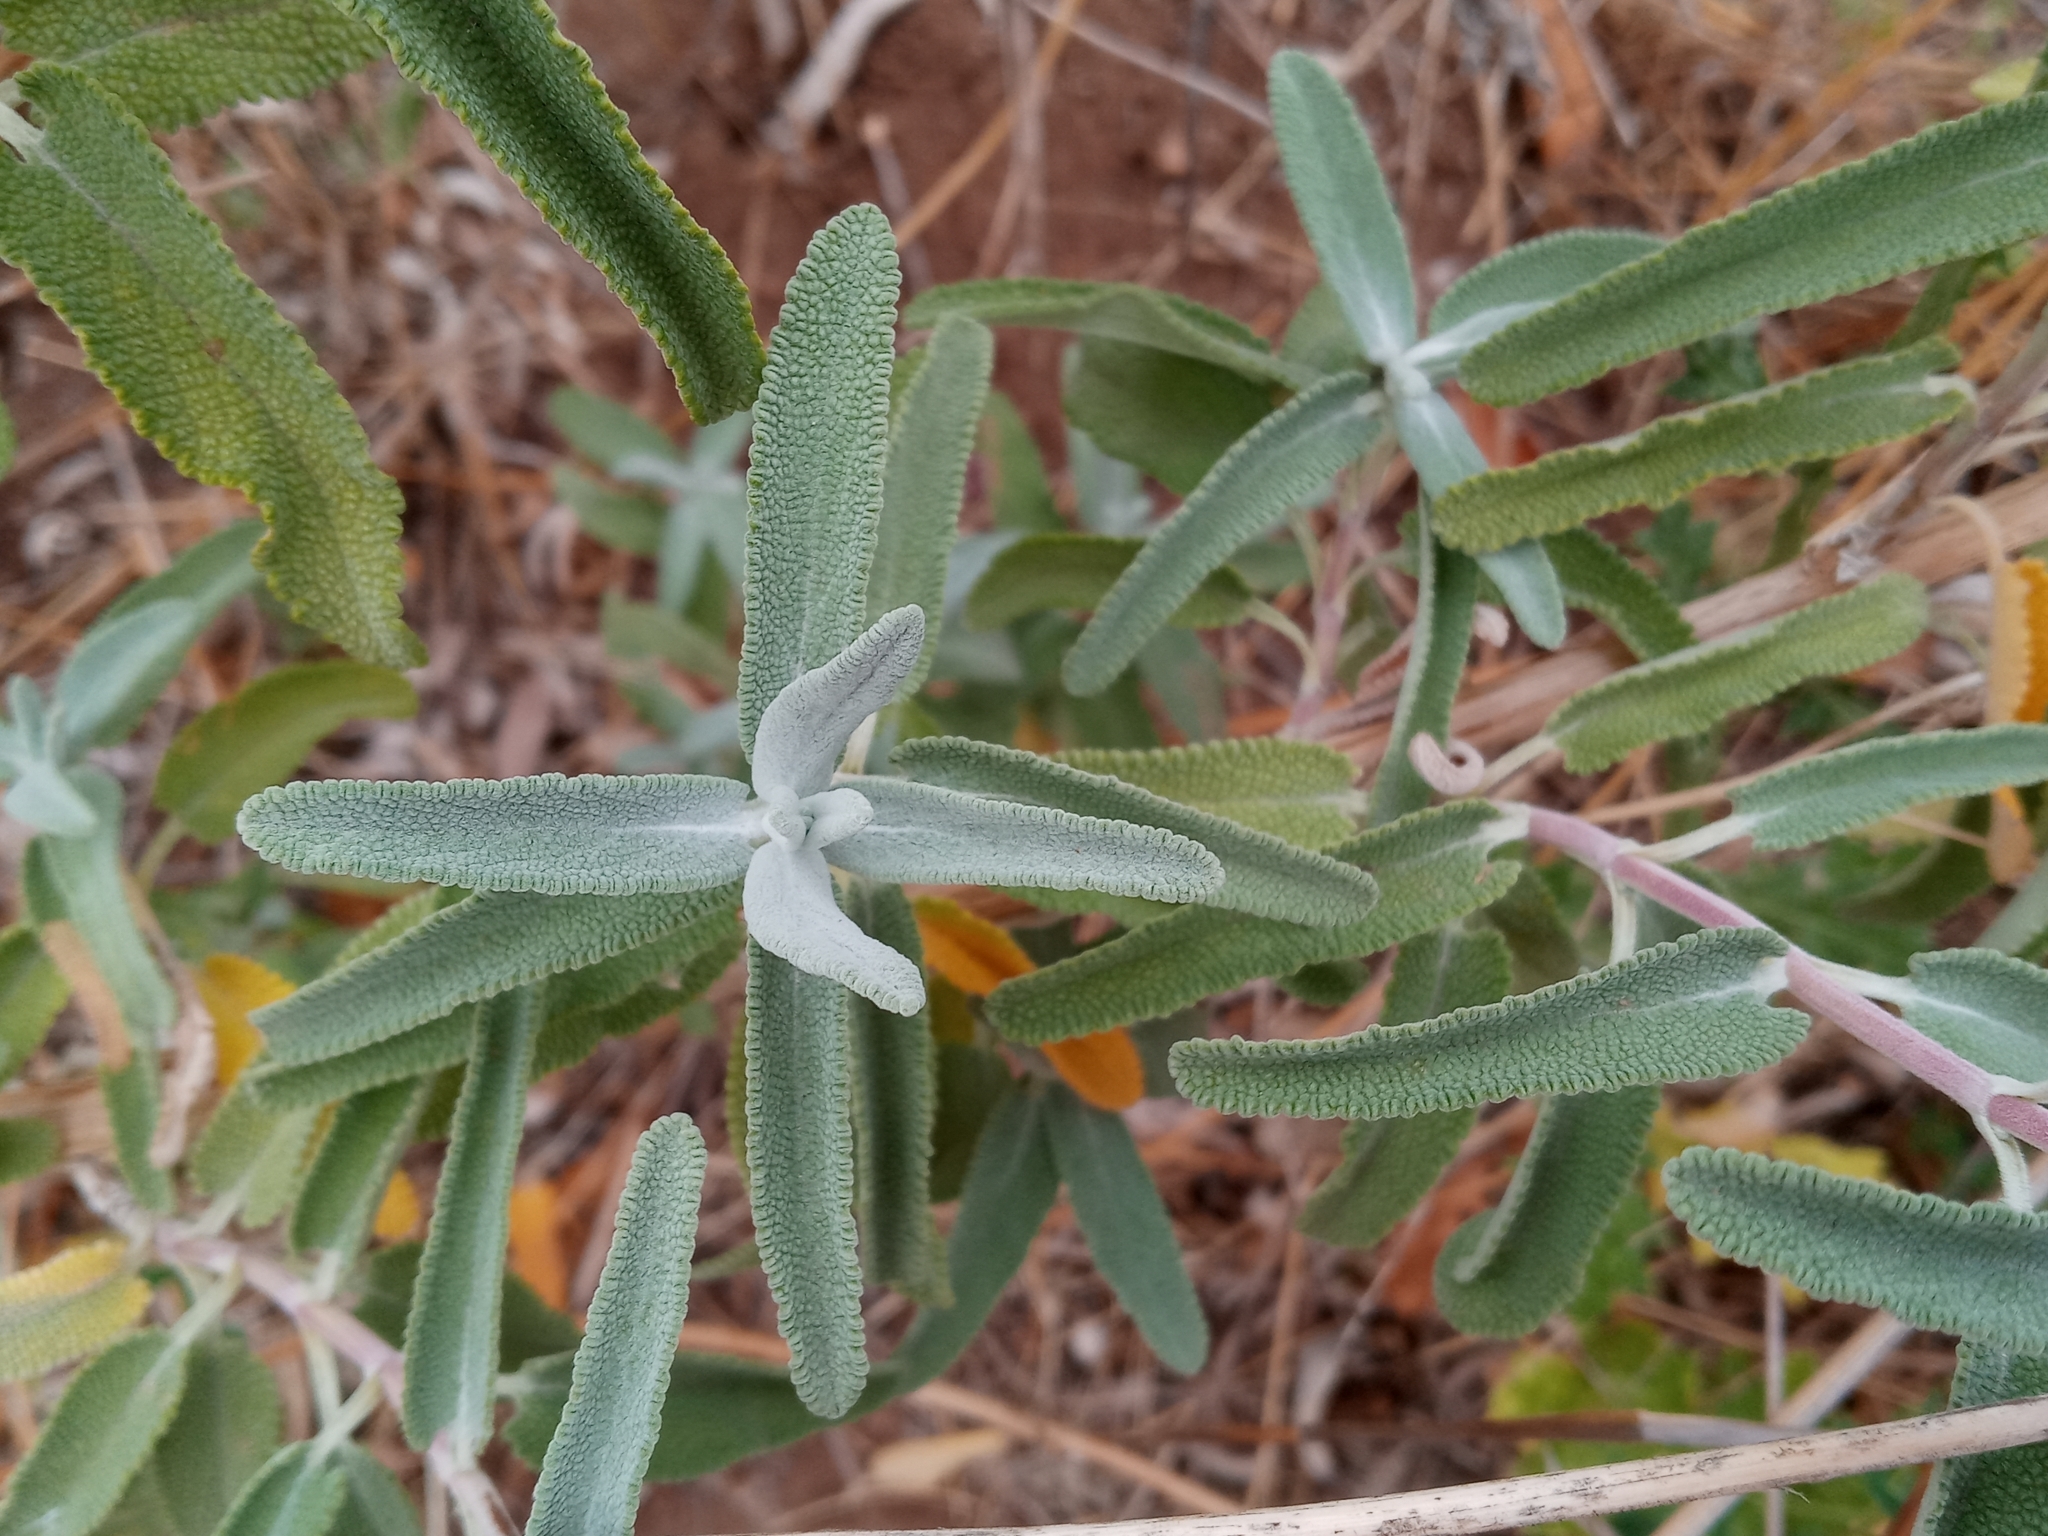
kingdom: Plantae
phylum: Tracheophyta
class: Magnoliopsida
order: Lamiales
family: Lamiaceae
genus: Salvia
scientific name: Salvia leucophylla
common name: Purple sage
